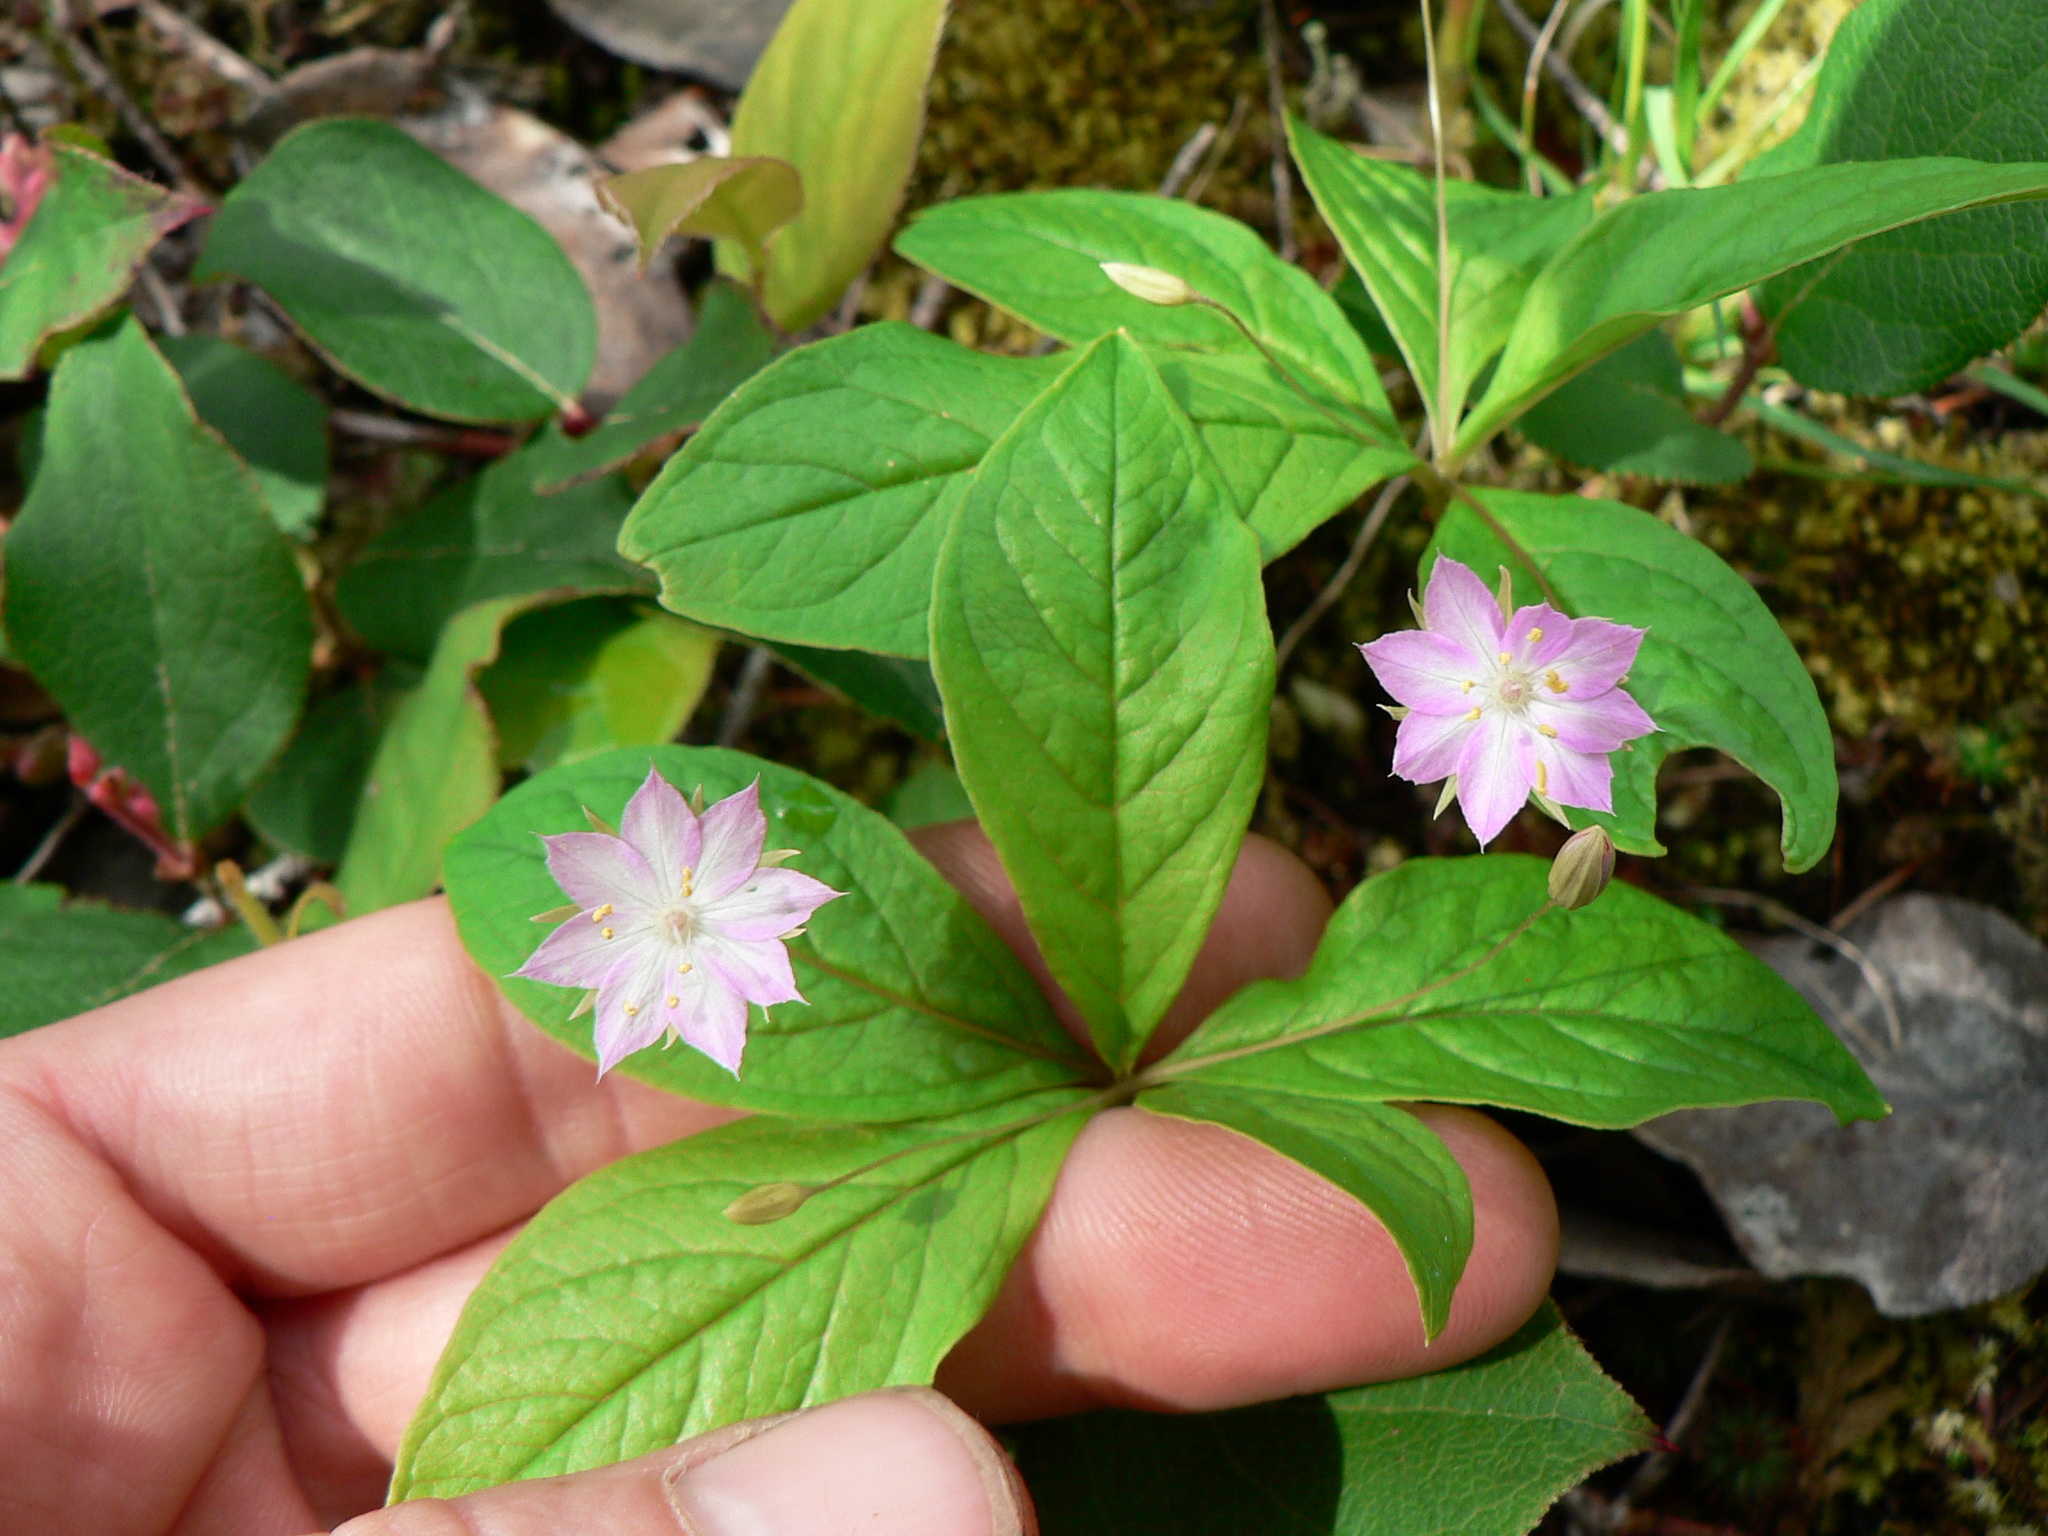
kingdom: Plantae
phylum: Tracheophyta
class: Magnoliopsida
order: Ericales
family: Primulaceae
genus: Lysimachia
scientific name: Lysimachia latifolia
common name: Pacific starflower
